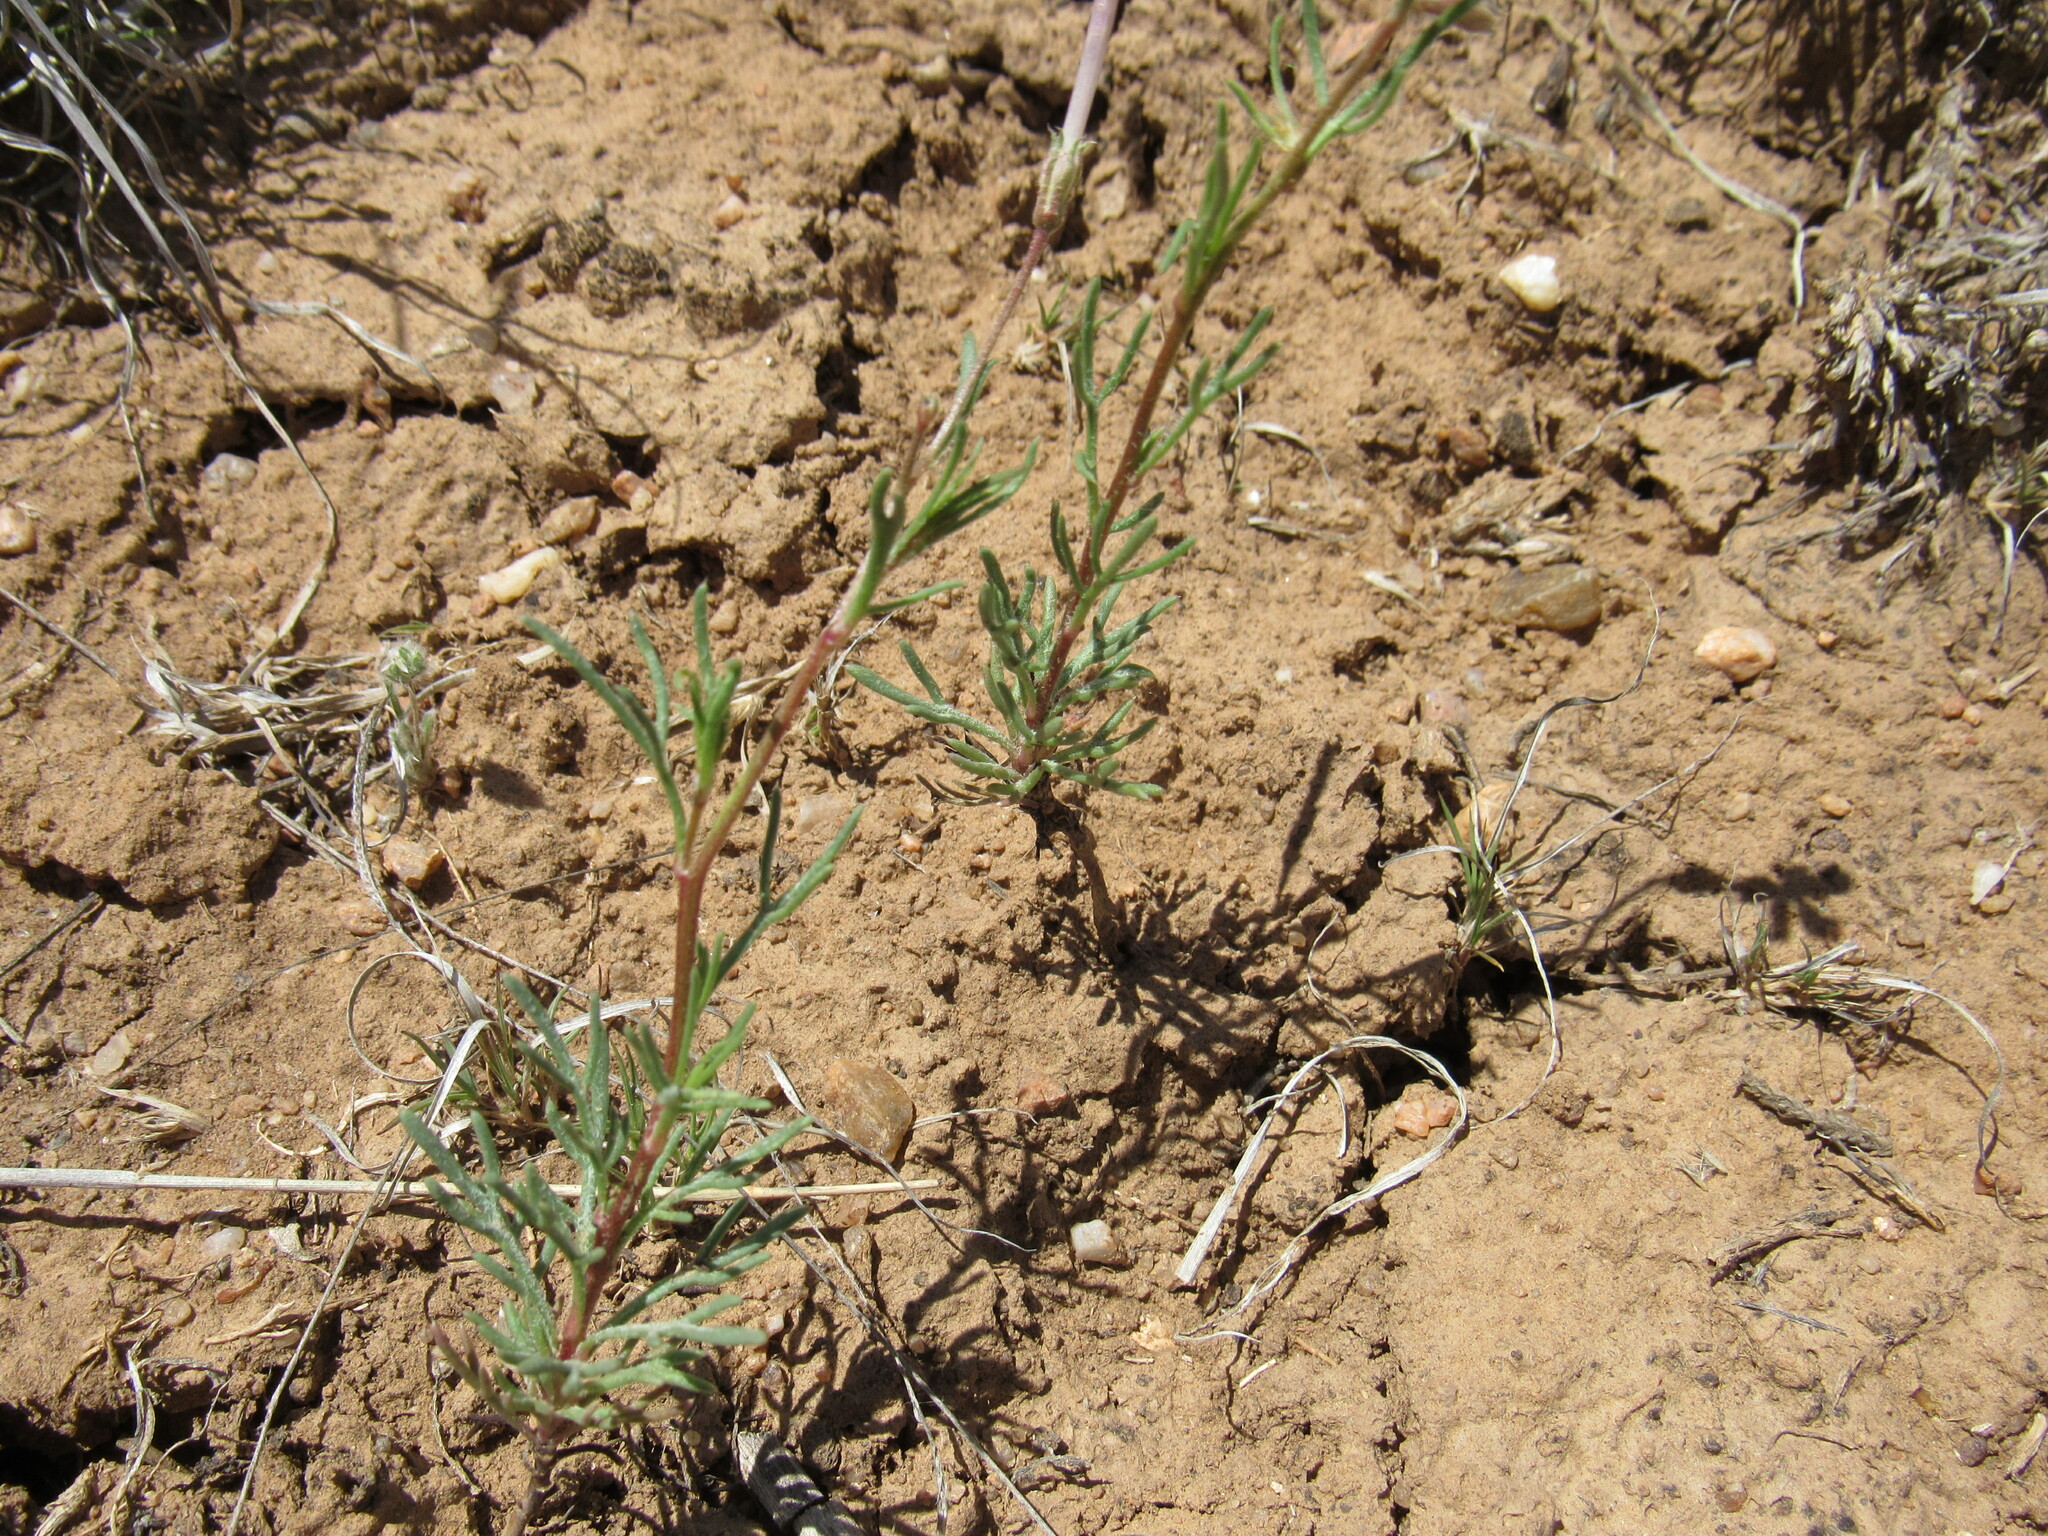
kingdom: Plantae
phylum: Tracheophyta
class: Magnoliopsida
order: Ericales
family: Polemoniaceae
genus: Ipomopsis
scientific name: Ipomopsis laxiflora
